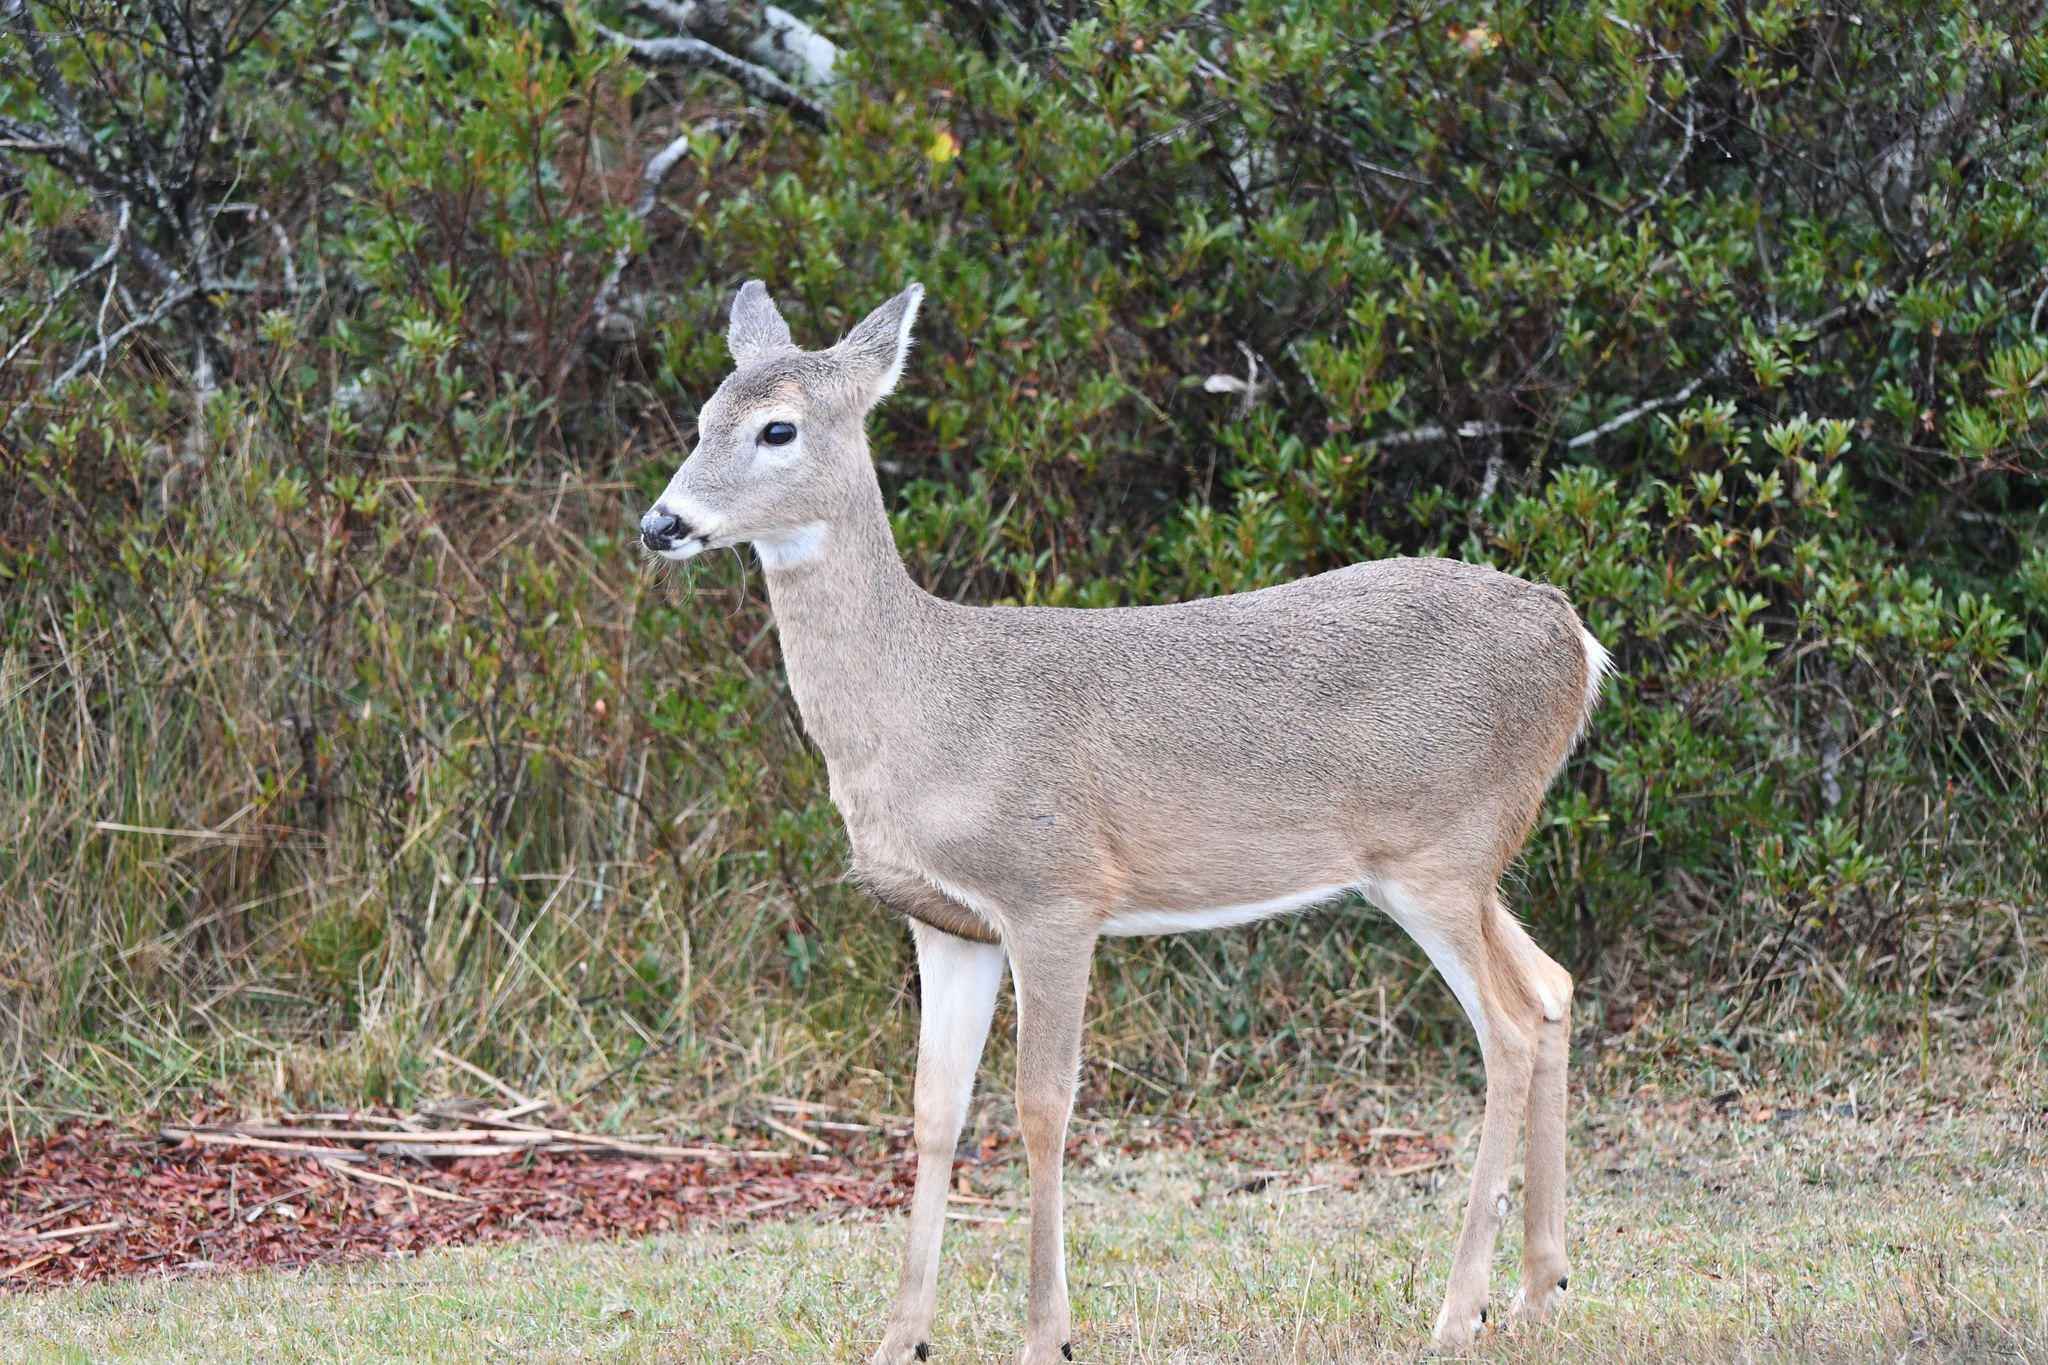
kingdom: Animalia
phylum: Chordata
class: Mammalia
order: Artiodactyla
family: Cervidae
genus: Odocoileus
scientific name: Odocoileus virginianus
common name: White-tailed deer
